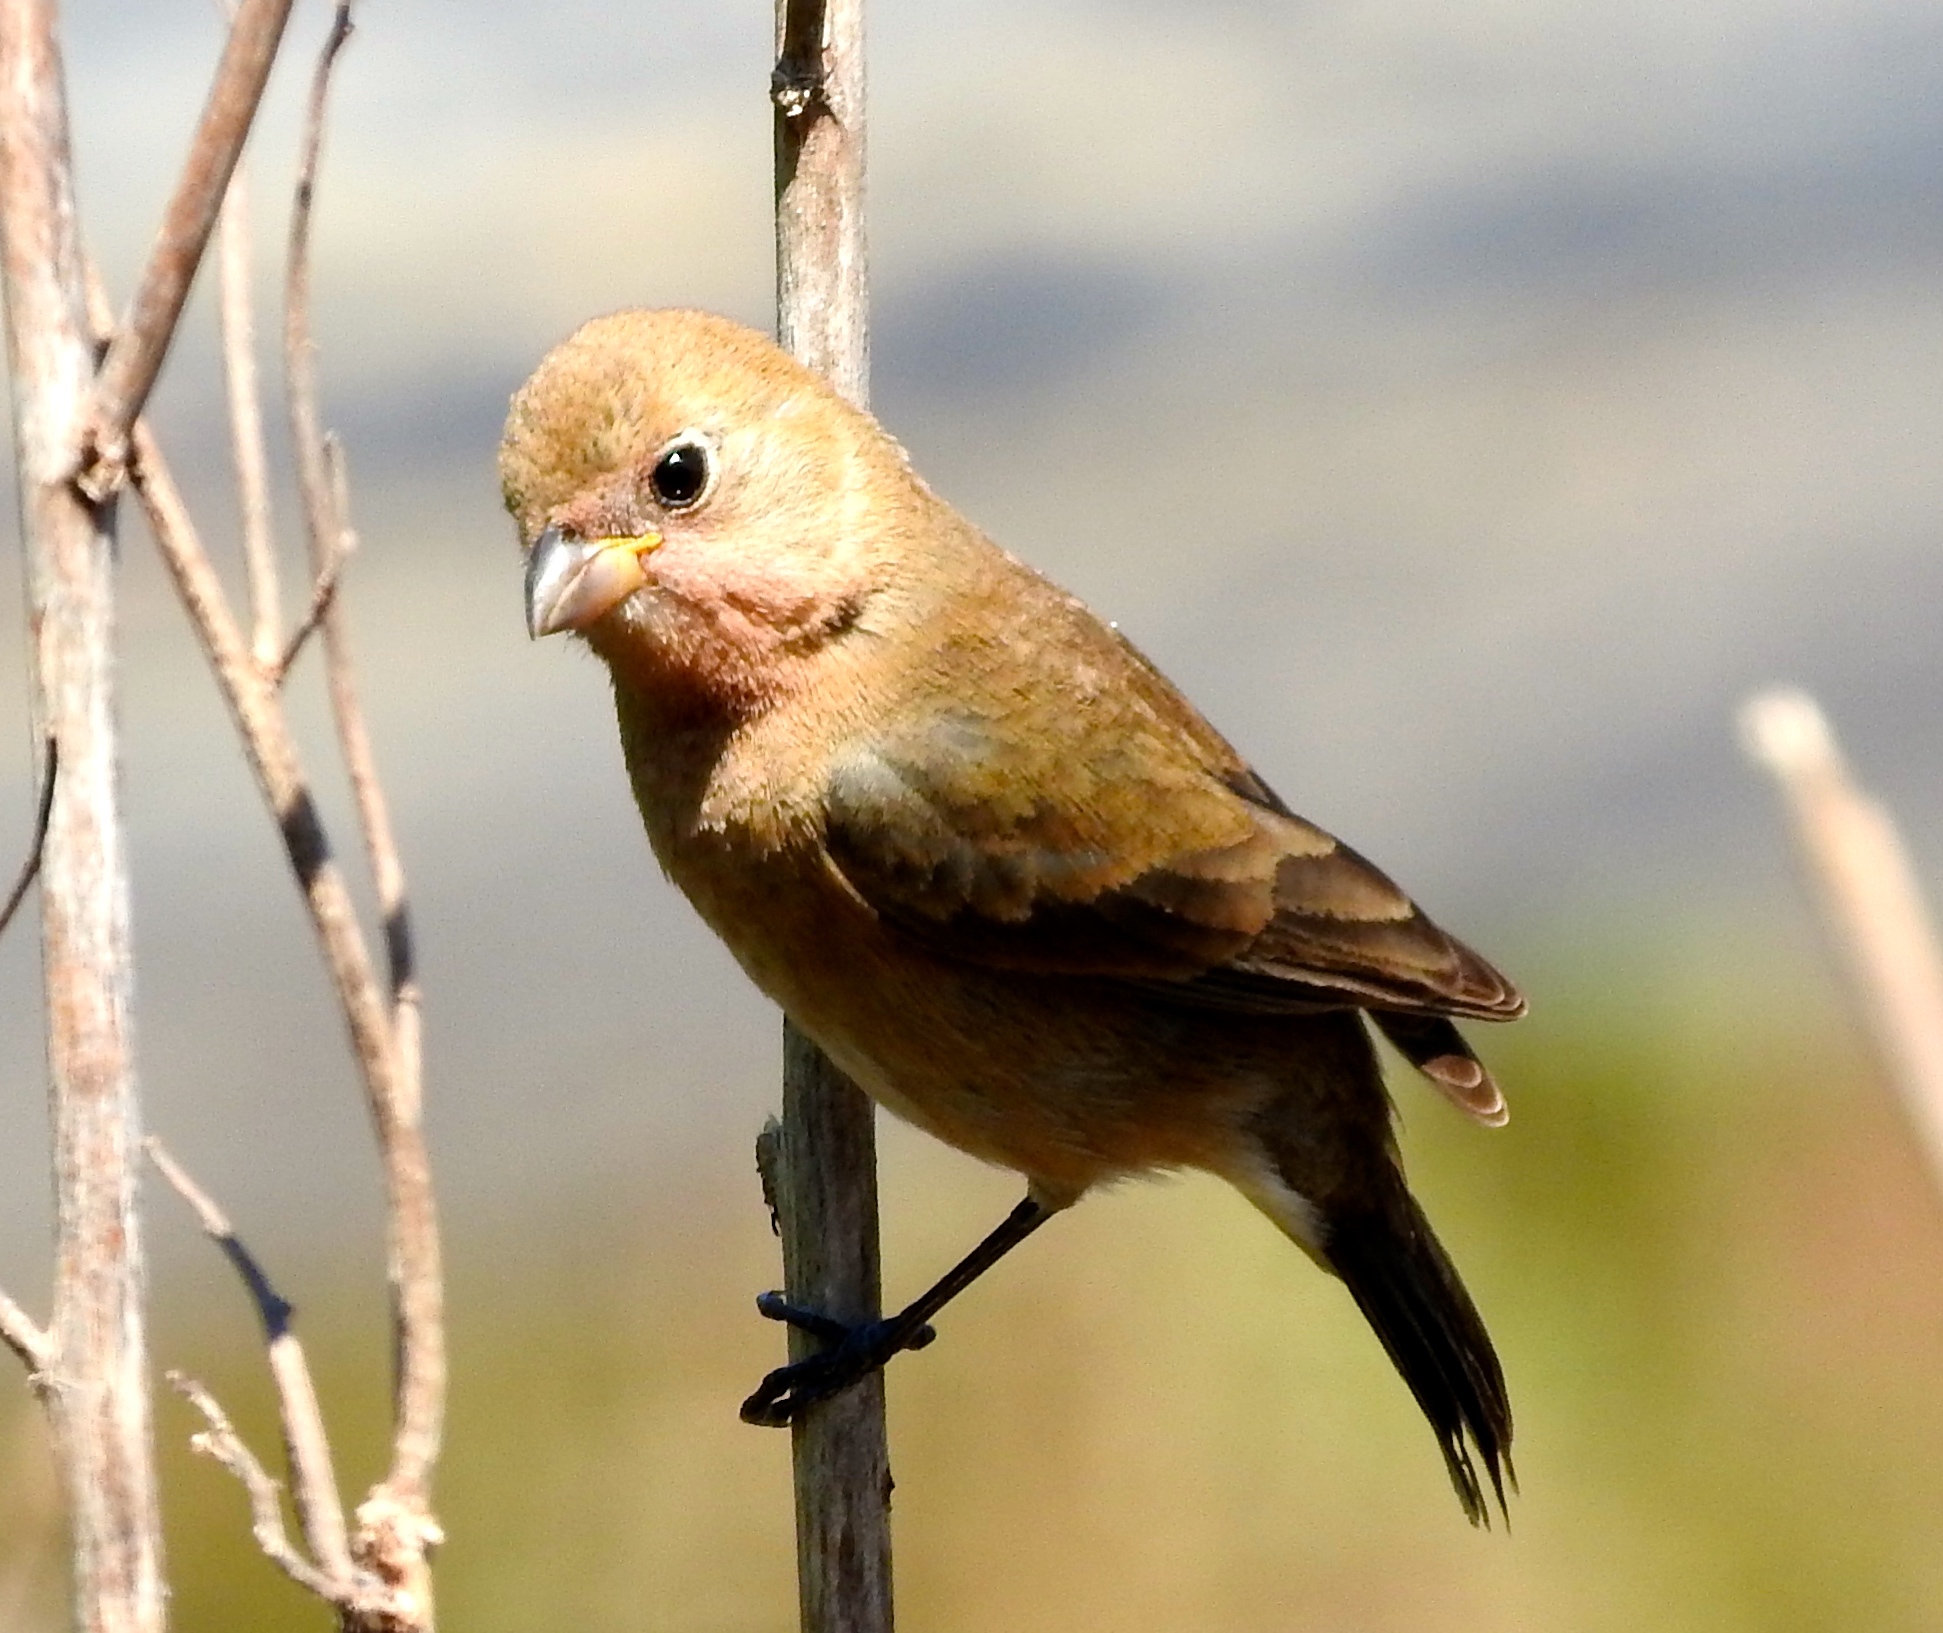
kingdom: Animalia
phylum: Chordata
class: Aves
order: Passeriformes
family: Thraupidae
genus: Sporophila
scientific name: Sporophila torqueola
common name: White-collared seedeater
